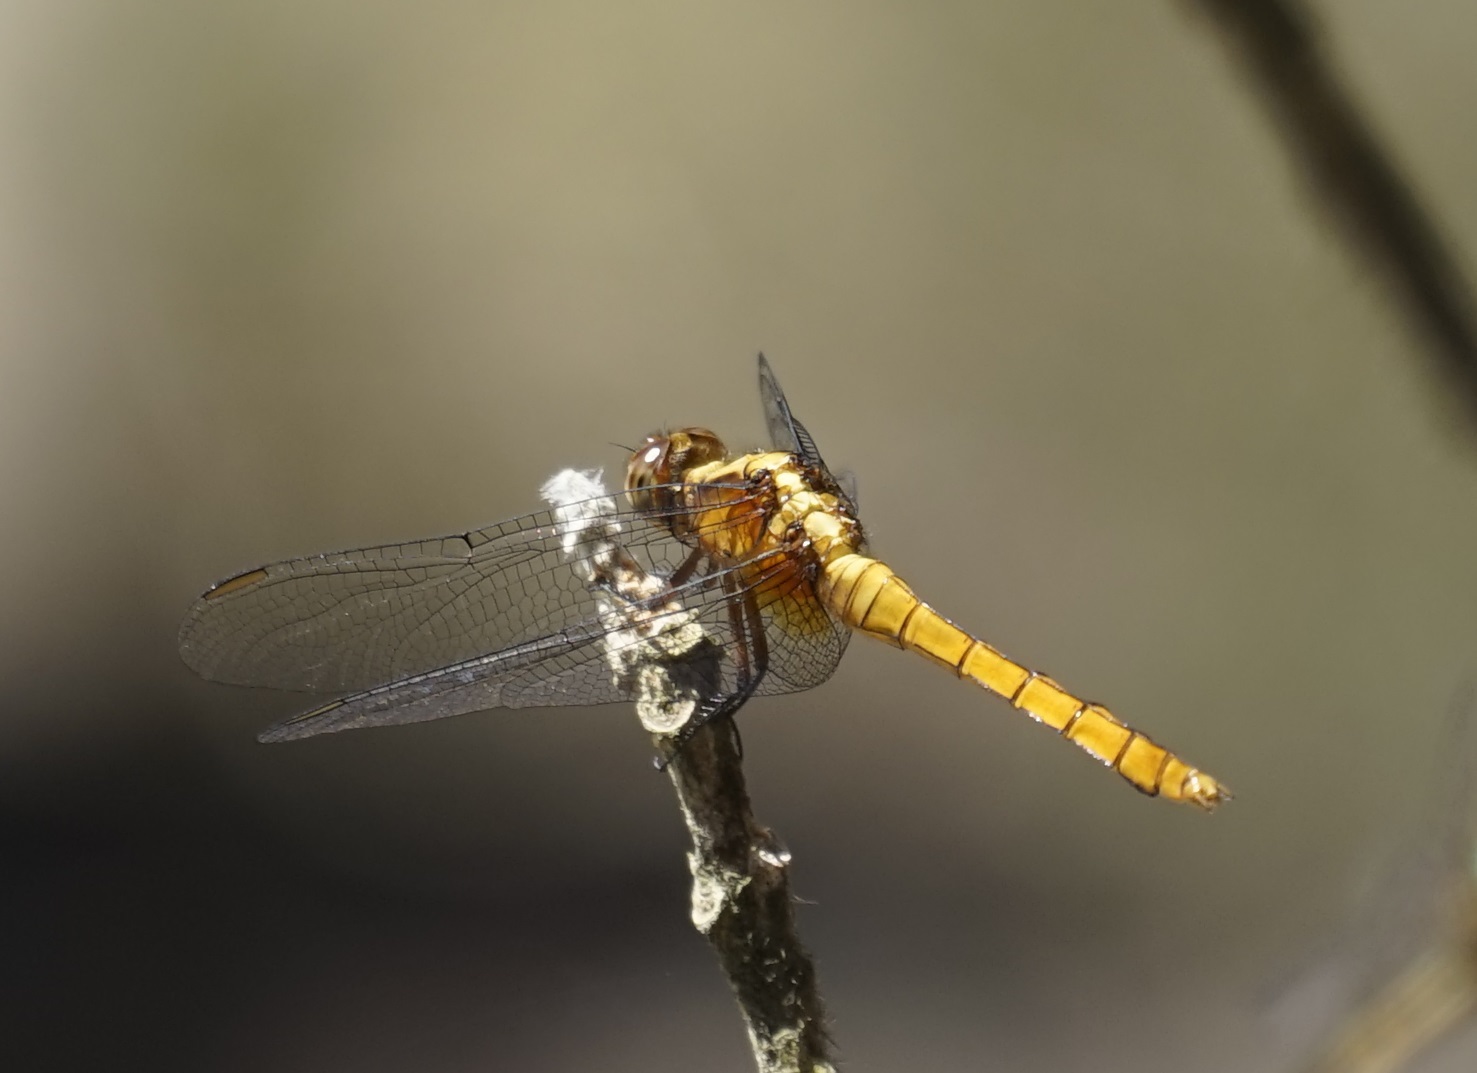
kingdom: Animalia
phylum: Arthropoda
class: Insecta
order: Odonata
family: Libellulidae
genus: Orthetrum
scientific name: Orthetrum villosovittatum
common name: Firery skimmer
